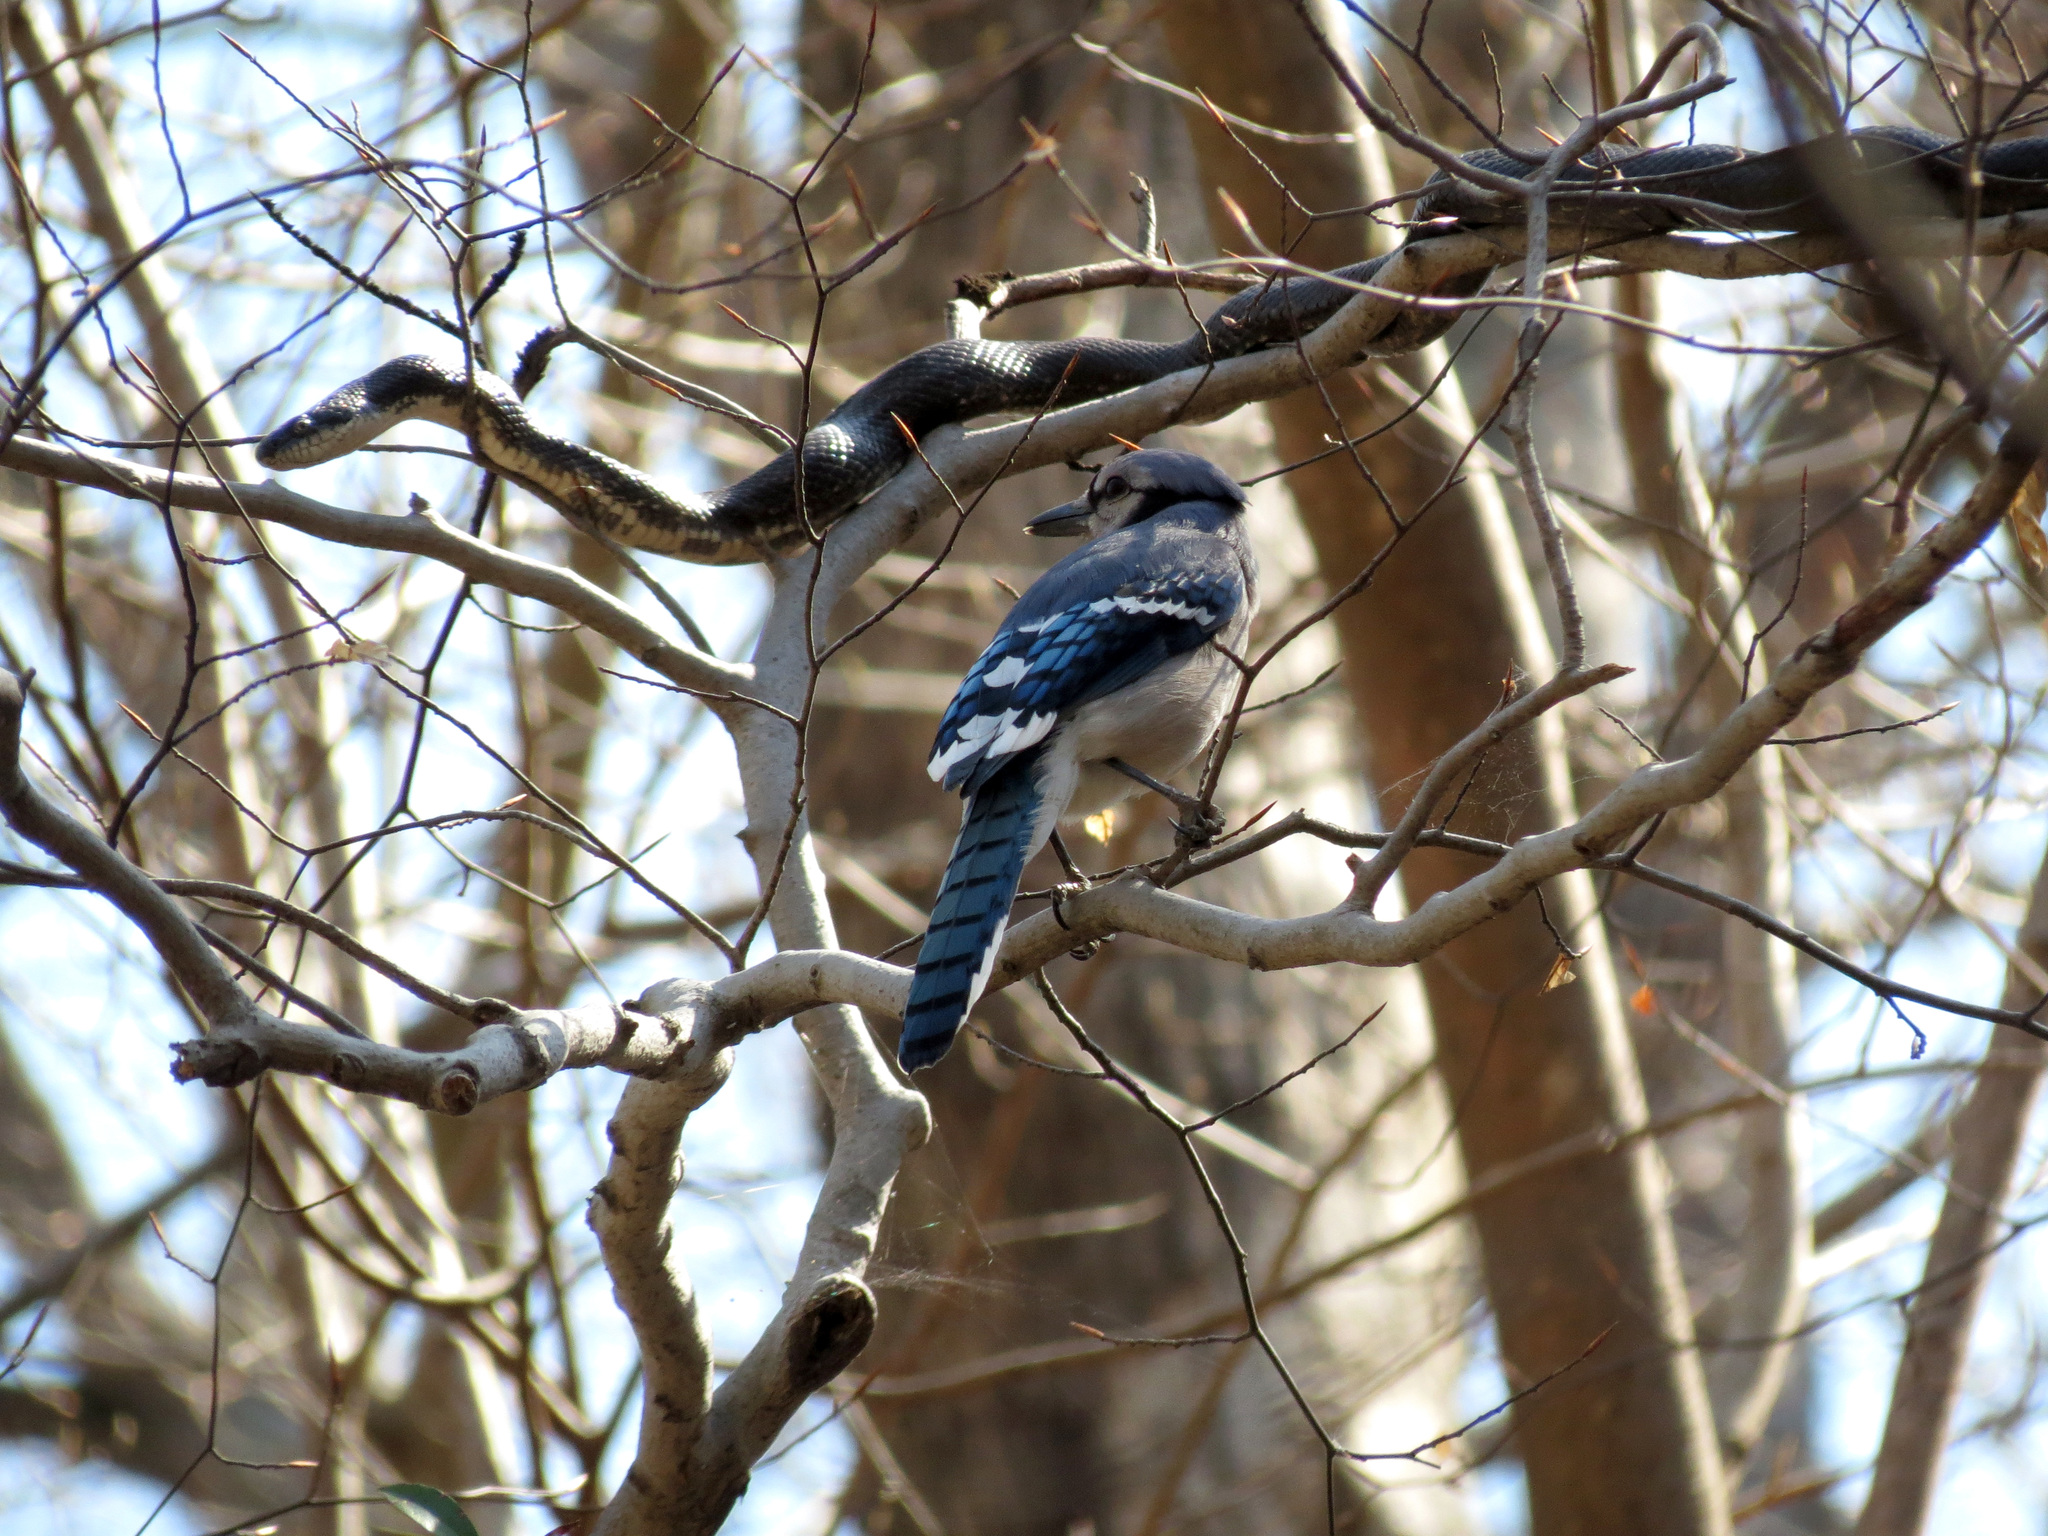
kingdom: Animalia
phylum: Chordata
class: Aves
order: Passeriformes
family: Corvidae
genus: Cyanocitta
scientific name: Cyanocitta cristata
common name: Blue jay
